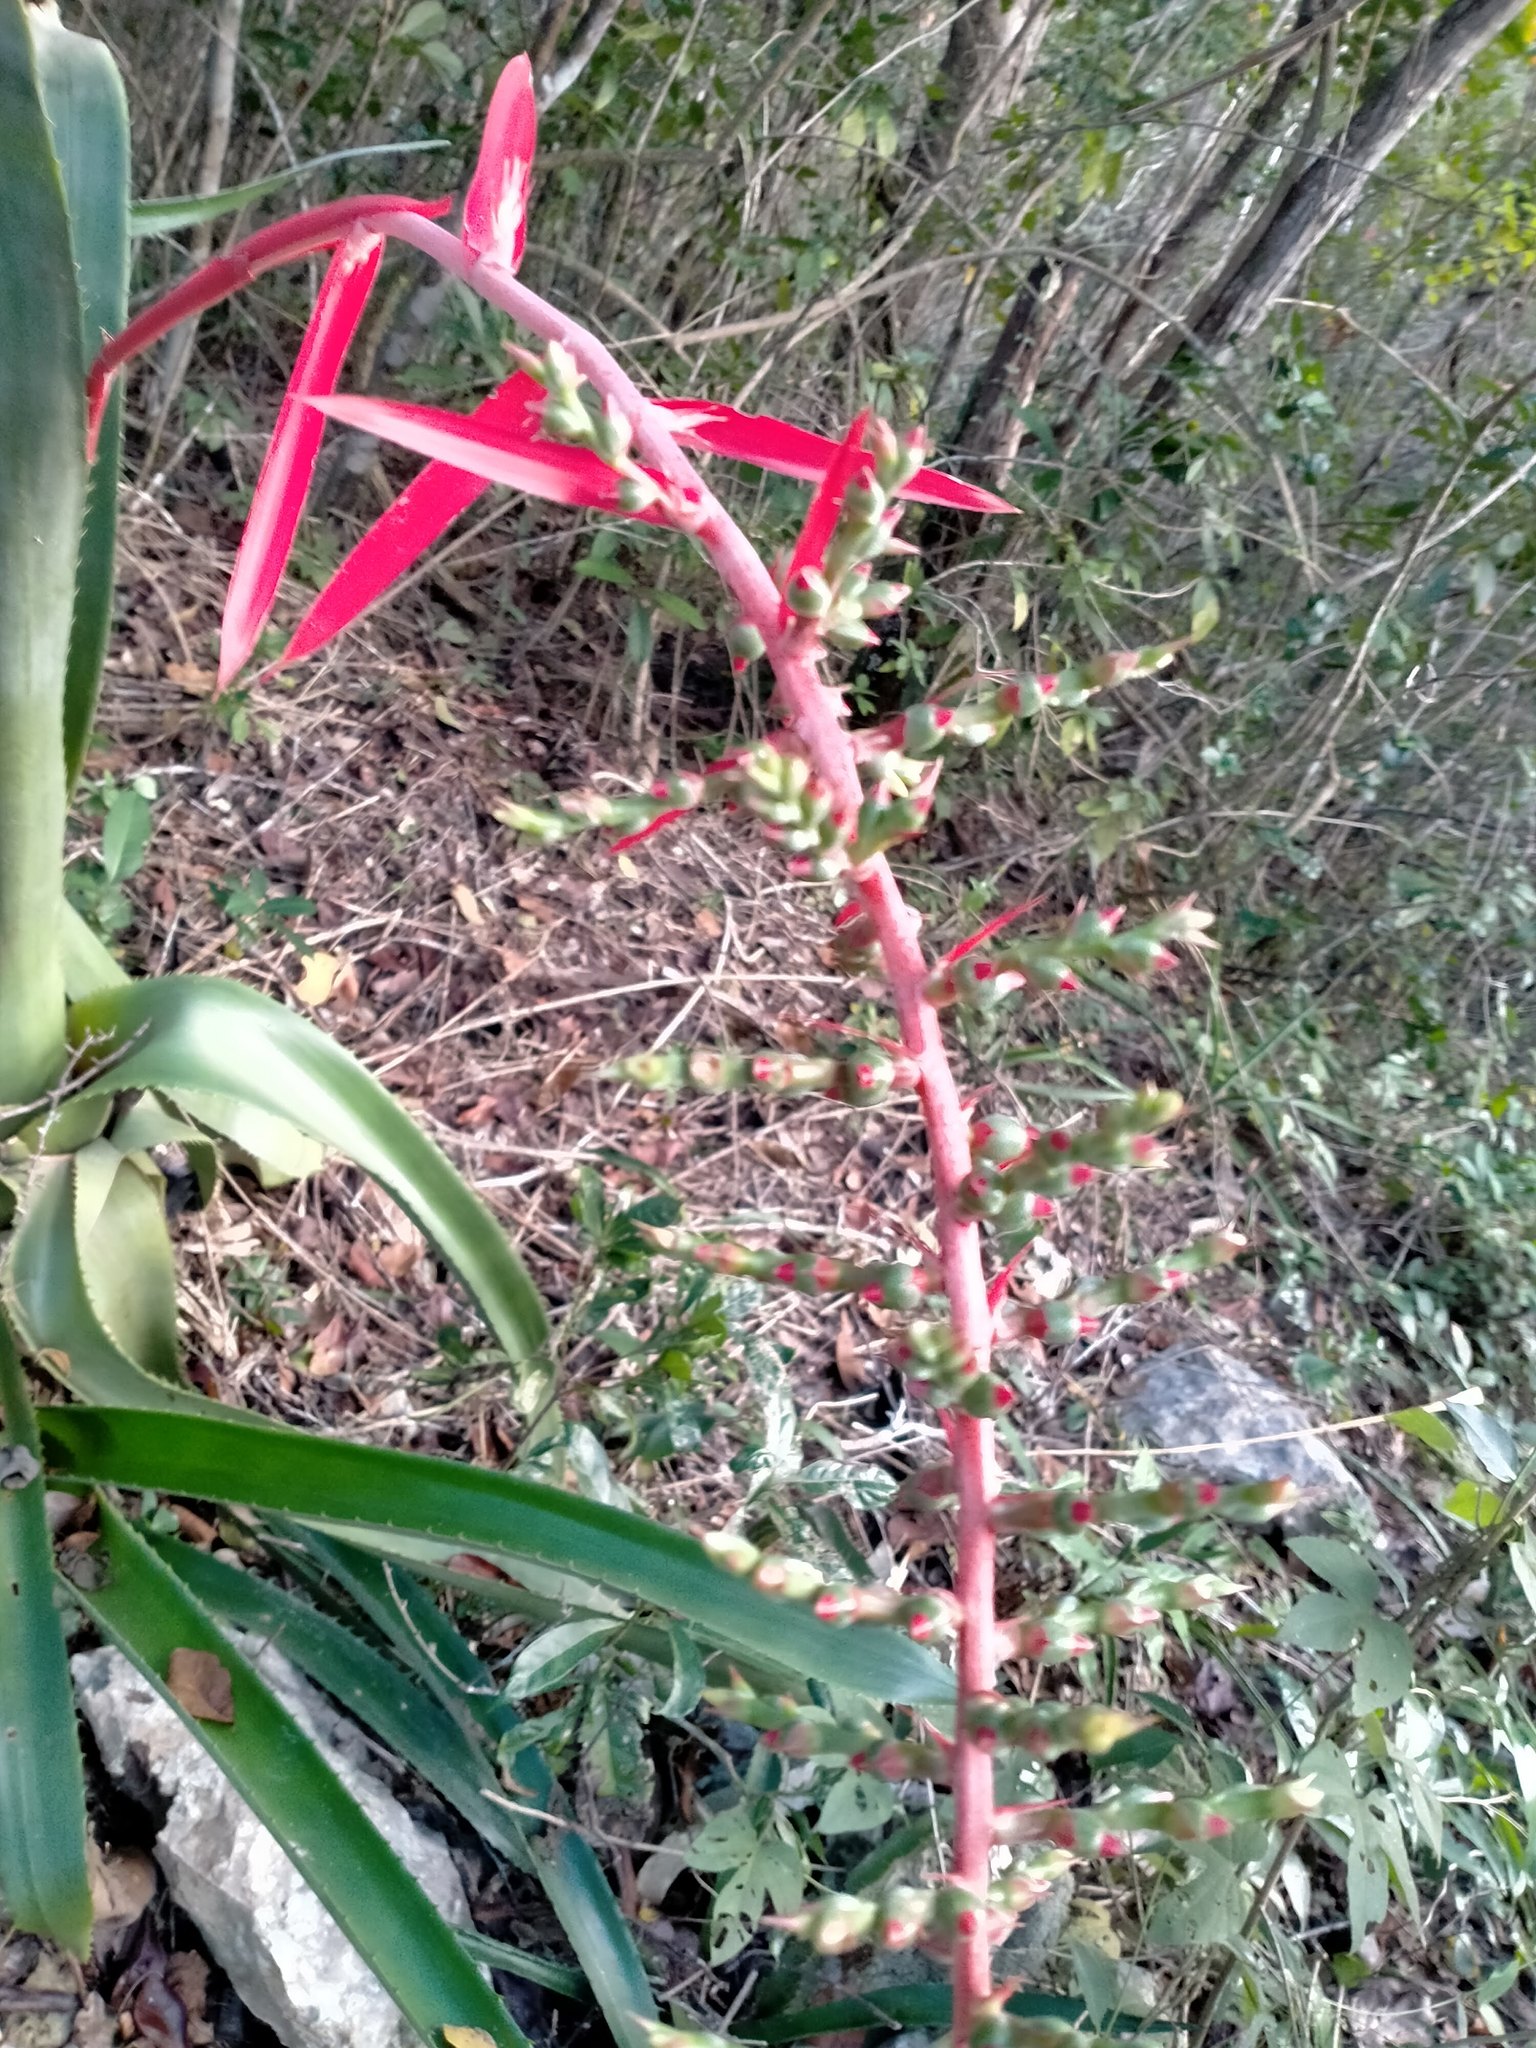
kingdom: Plantae
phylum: Tracheophyta
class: Liliopsida
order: Poales
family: Bromeliaceae
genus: Aechmea
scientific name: Aechmea bracteata
